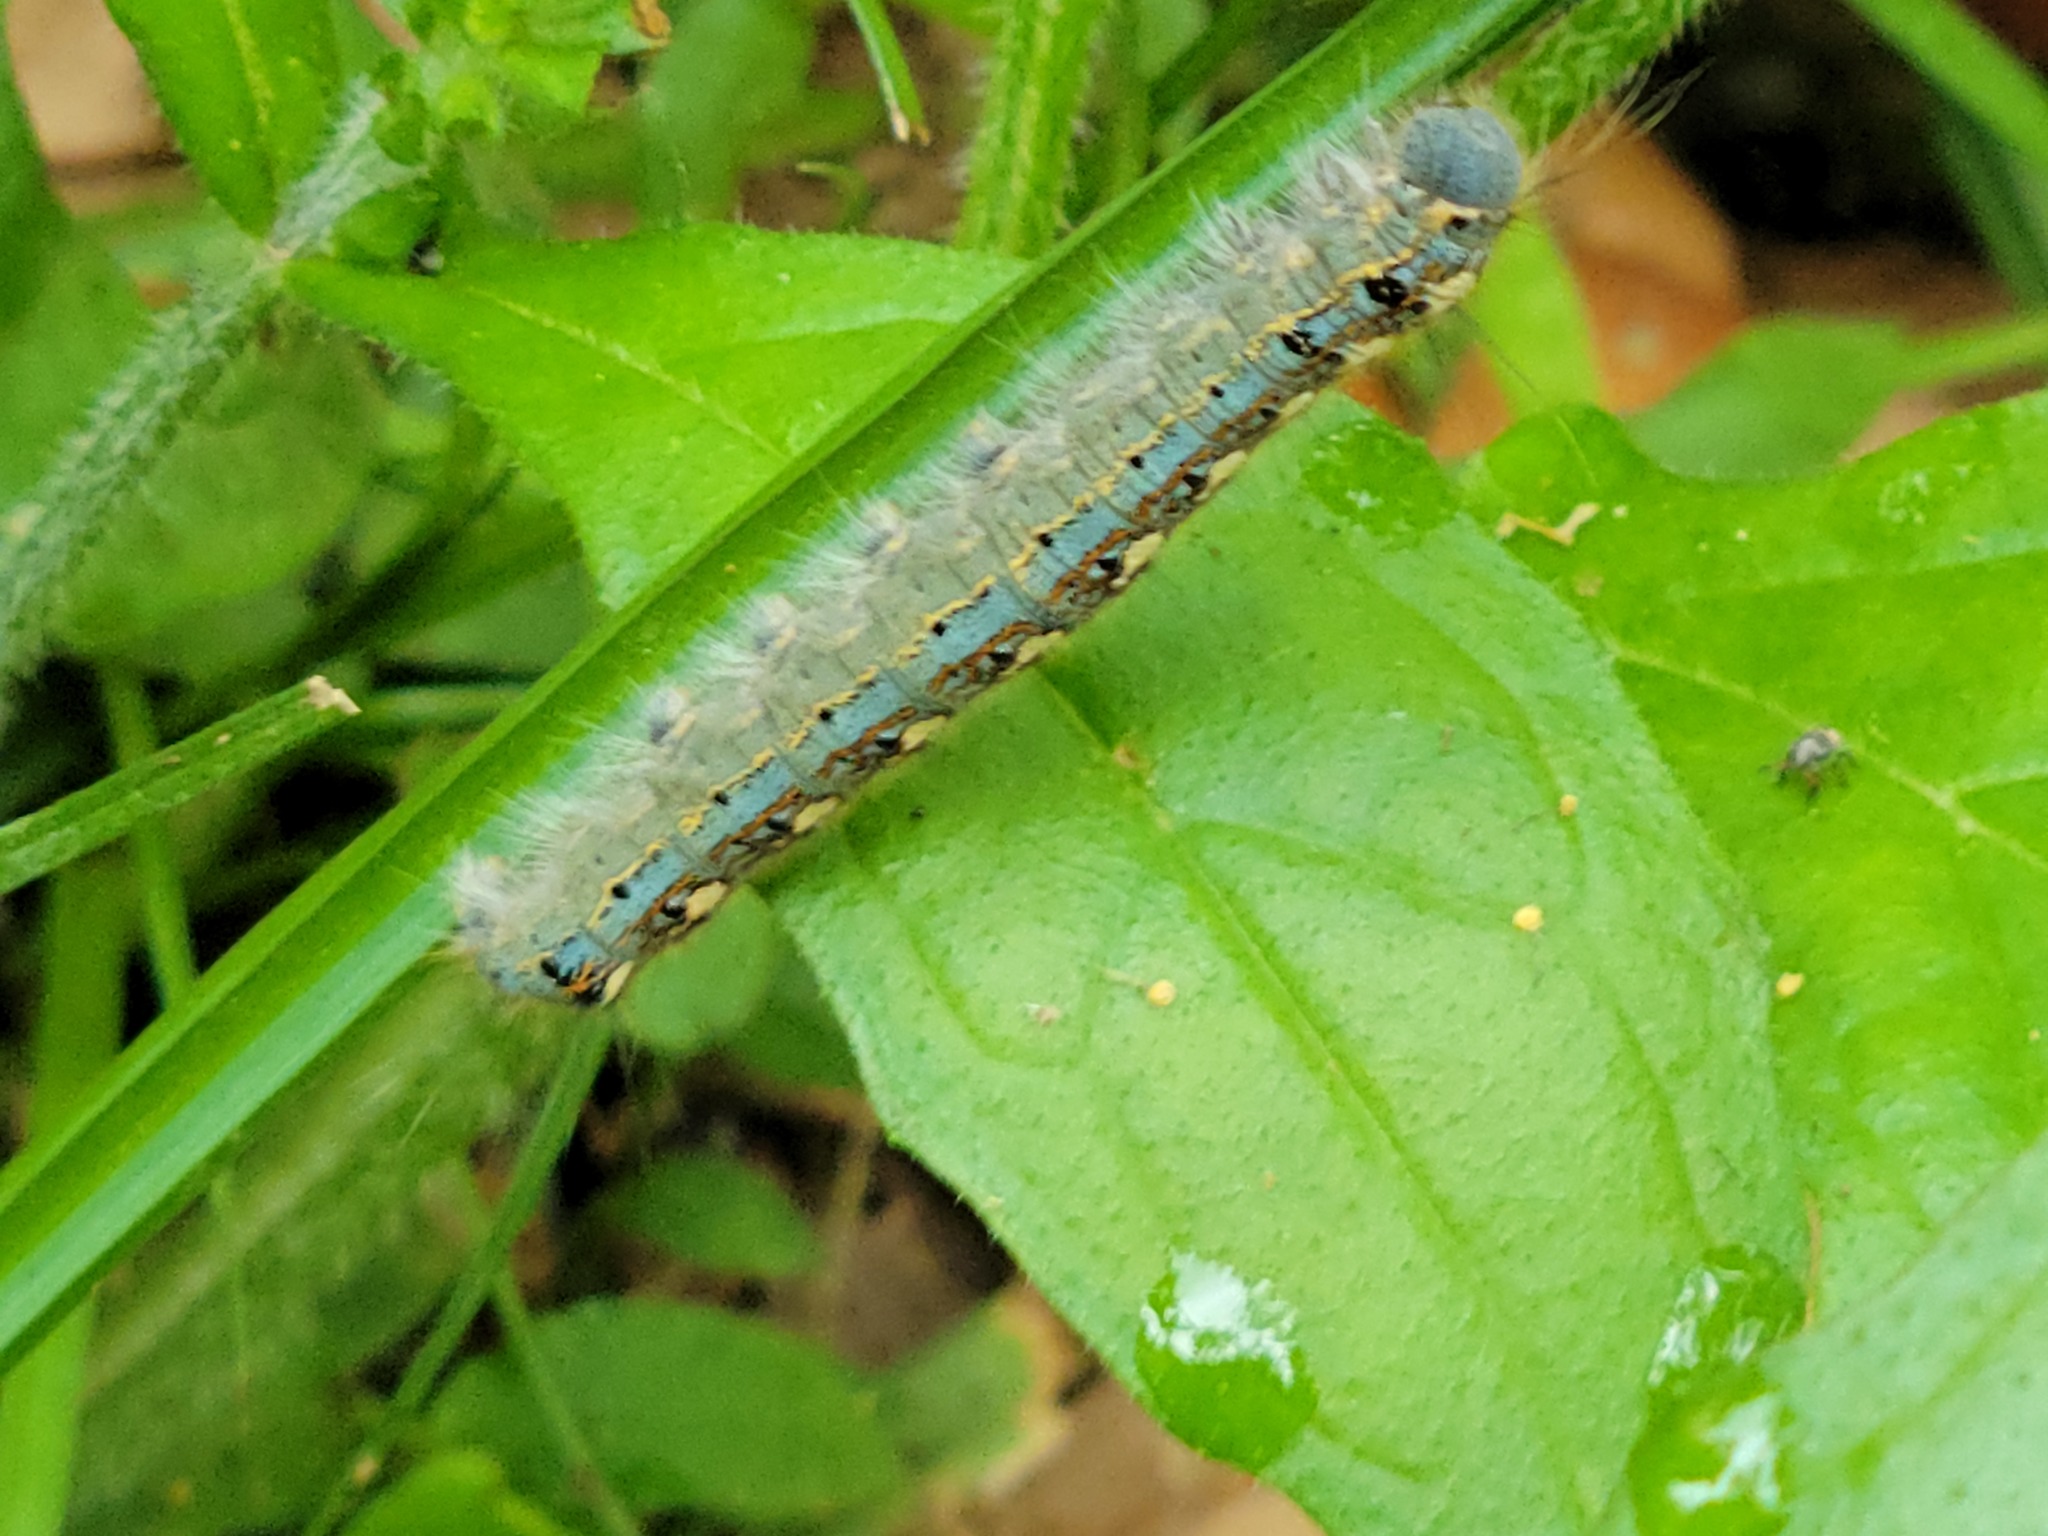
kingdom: Animalia
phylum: Arthropoda
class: Insecta
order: Lepidoptera
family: Lasiocampidae
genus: Malacosoma
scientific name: Malacosoma disstria
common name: Forest tent caterpillar
